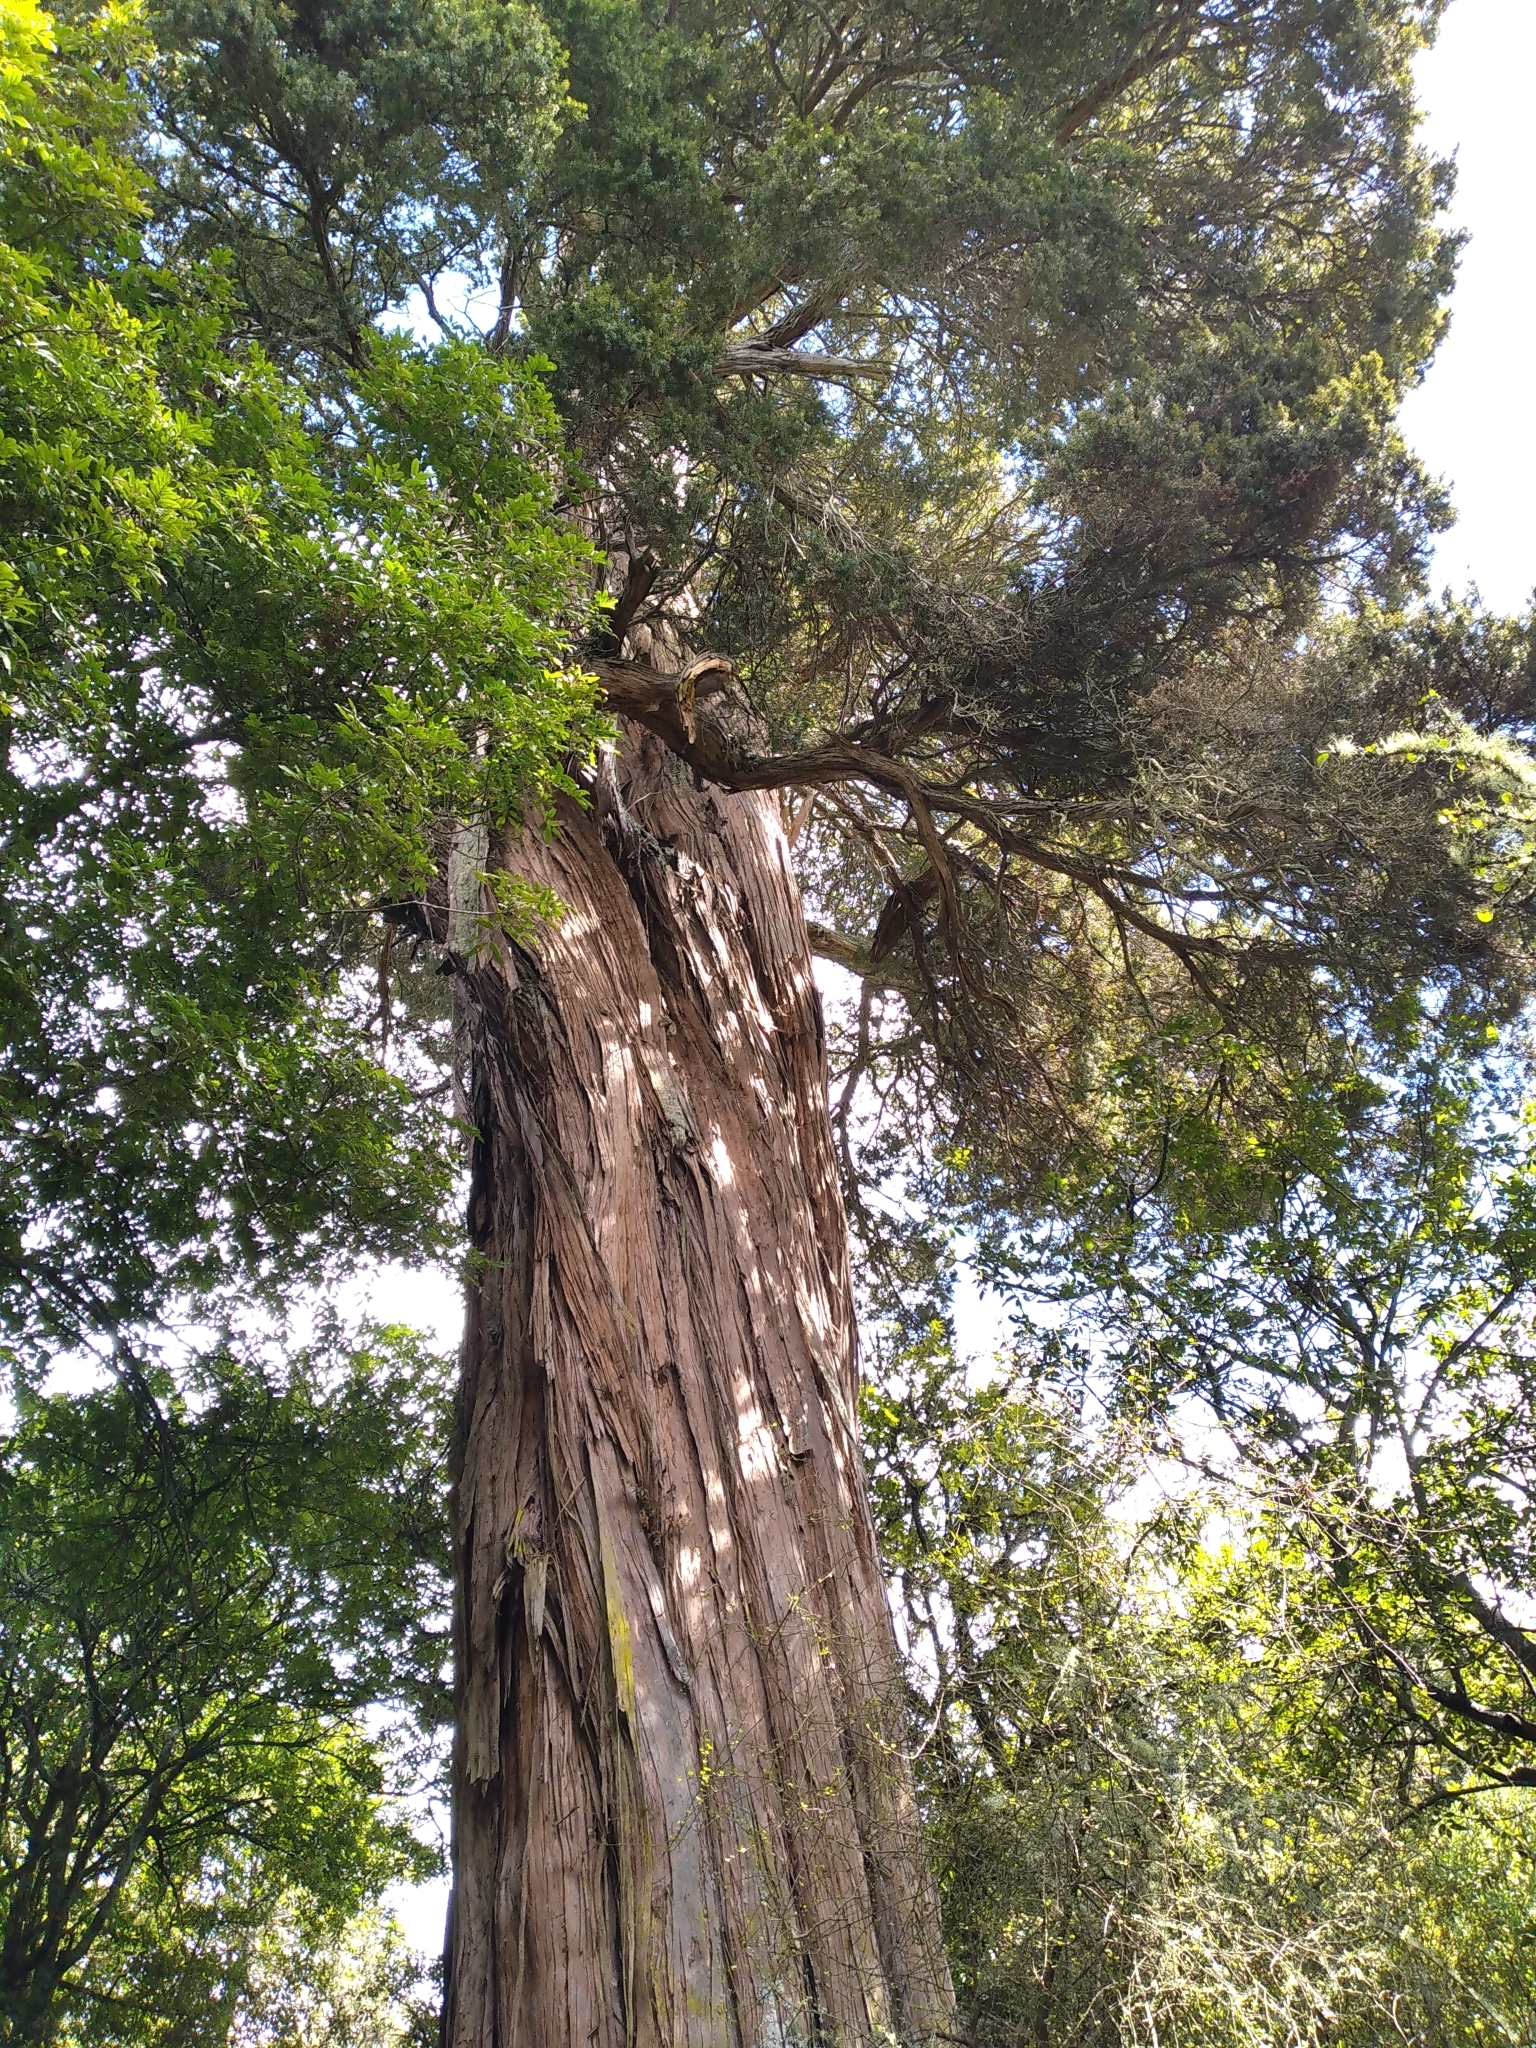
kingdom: Plantae
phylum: Tracheophyta
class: Pinopsida
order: Pinales
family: Podocarpaceae
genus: Podocarpus
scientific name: Podocarpus totara
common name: Totara
